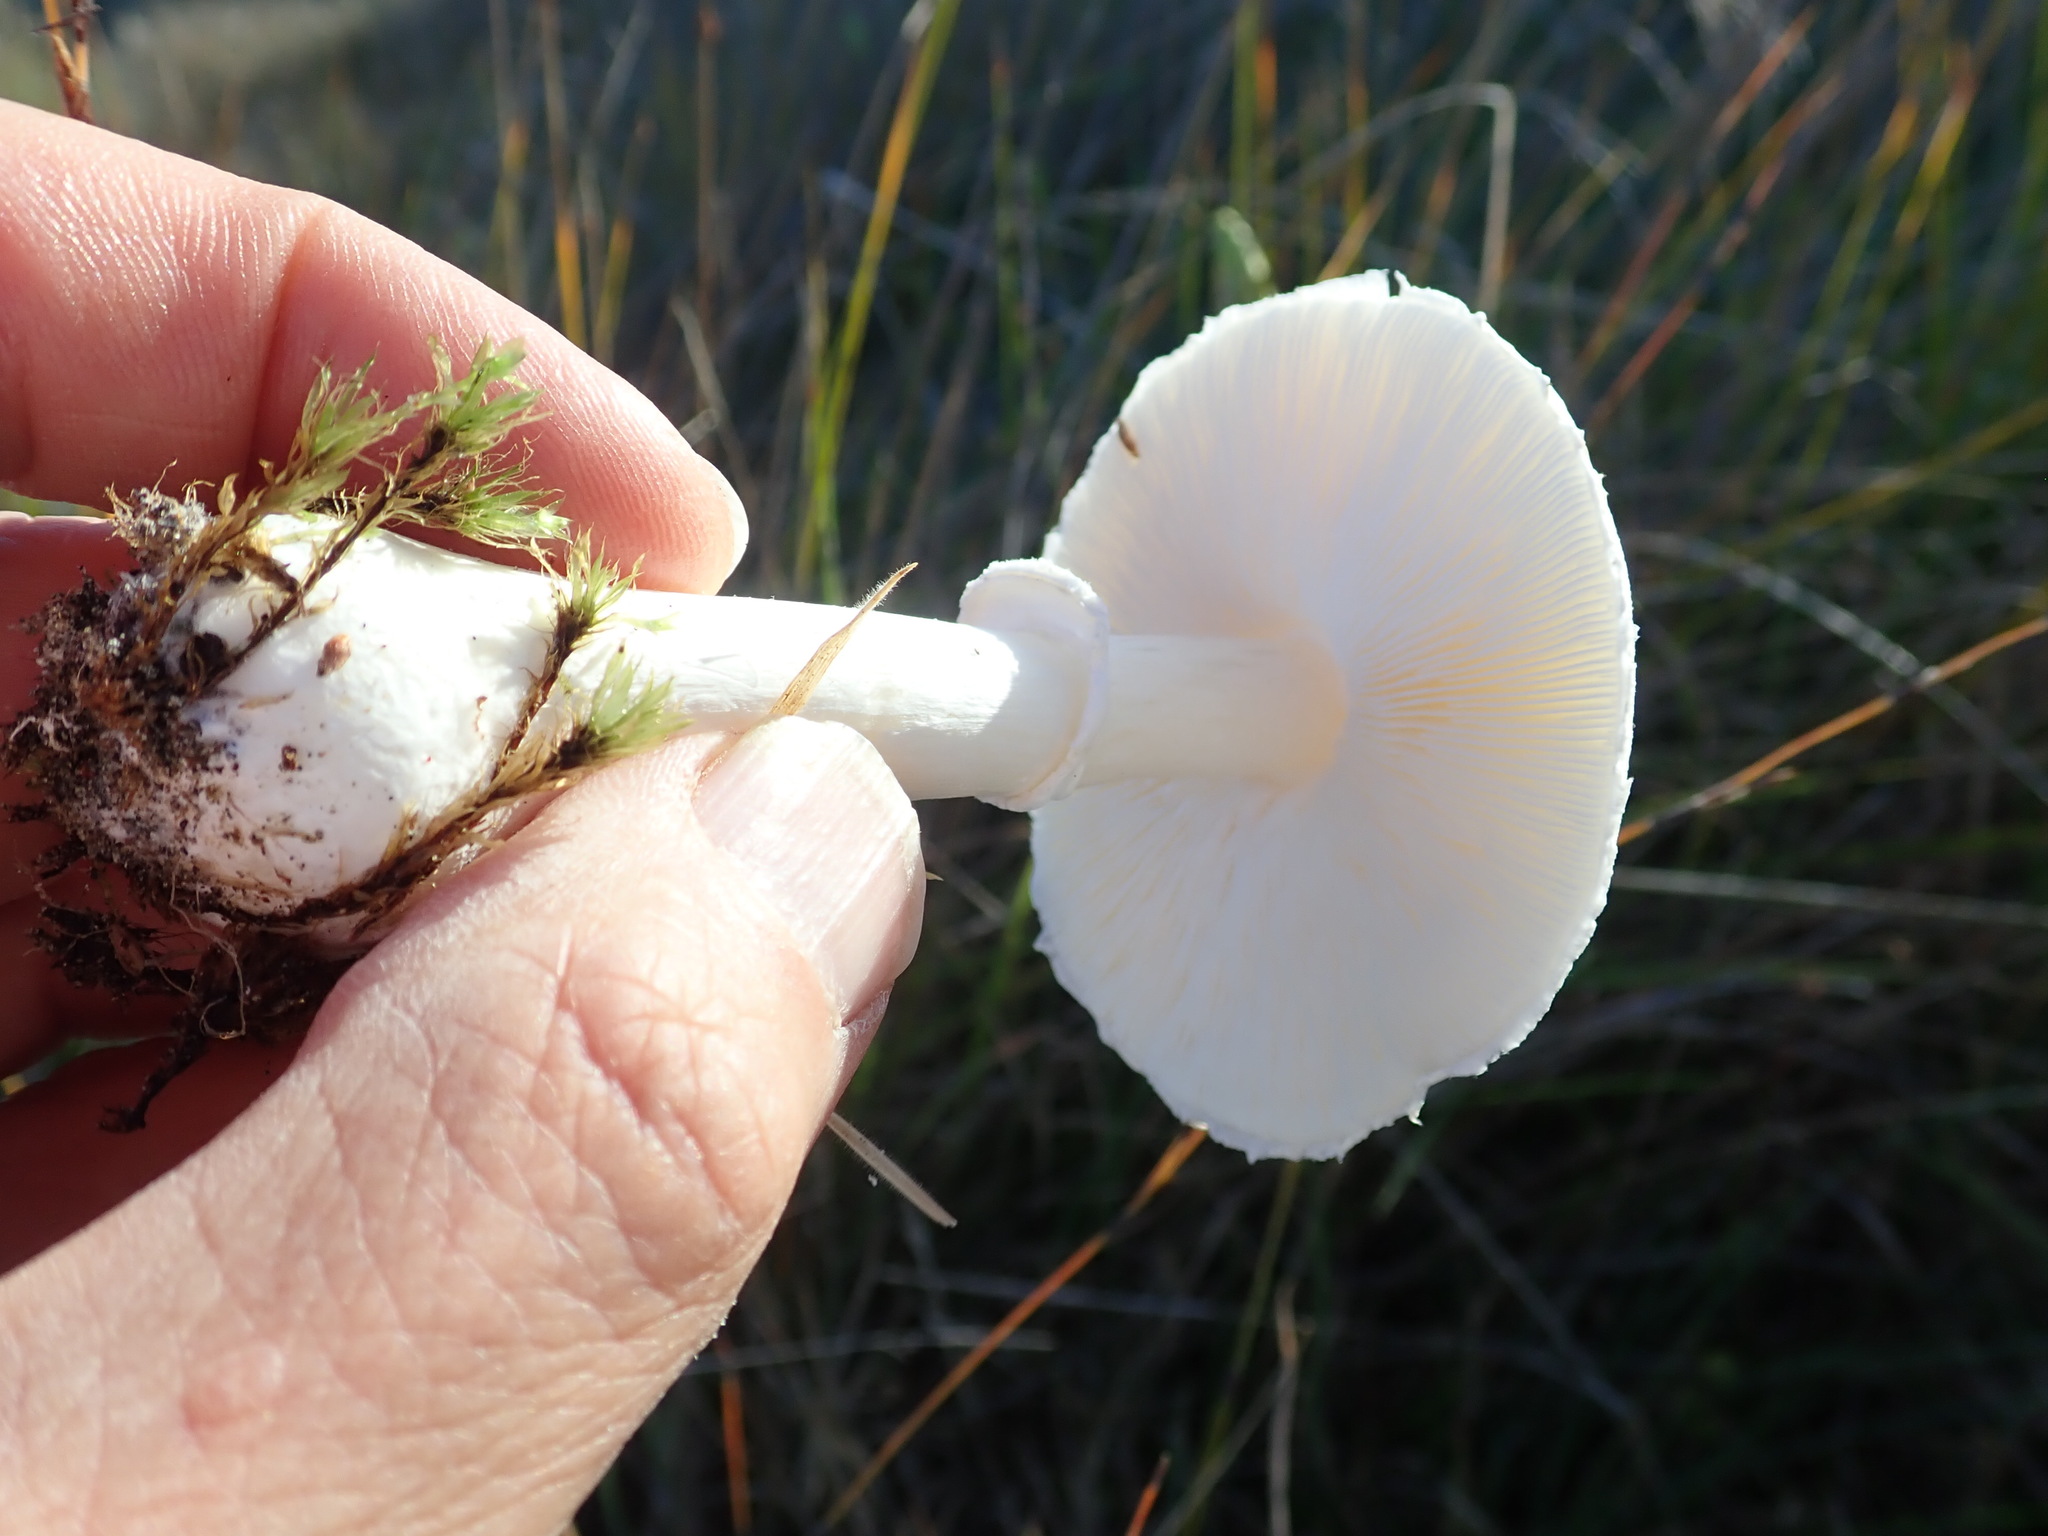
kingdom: Fungi
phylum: Basidiomycota
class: Agaricomycetes
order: Agaricales
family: Agaricaceae
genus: Leucoagaricus
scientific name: Leucoagaricus leucothites
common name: White dapperling
